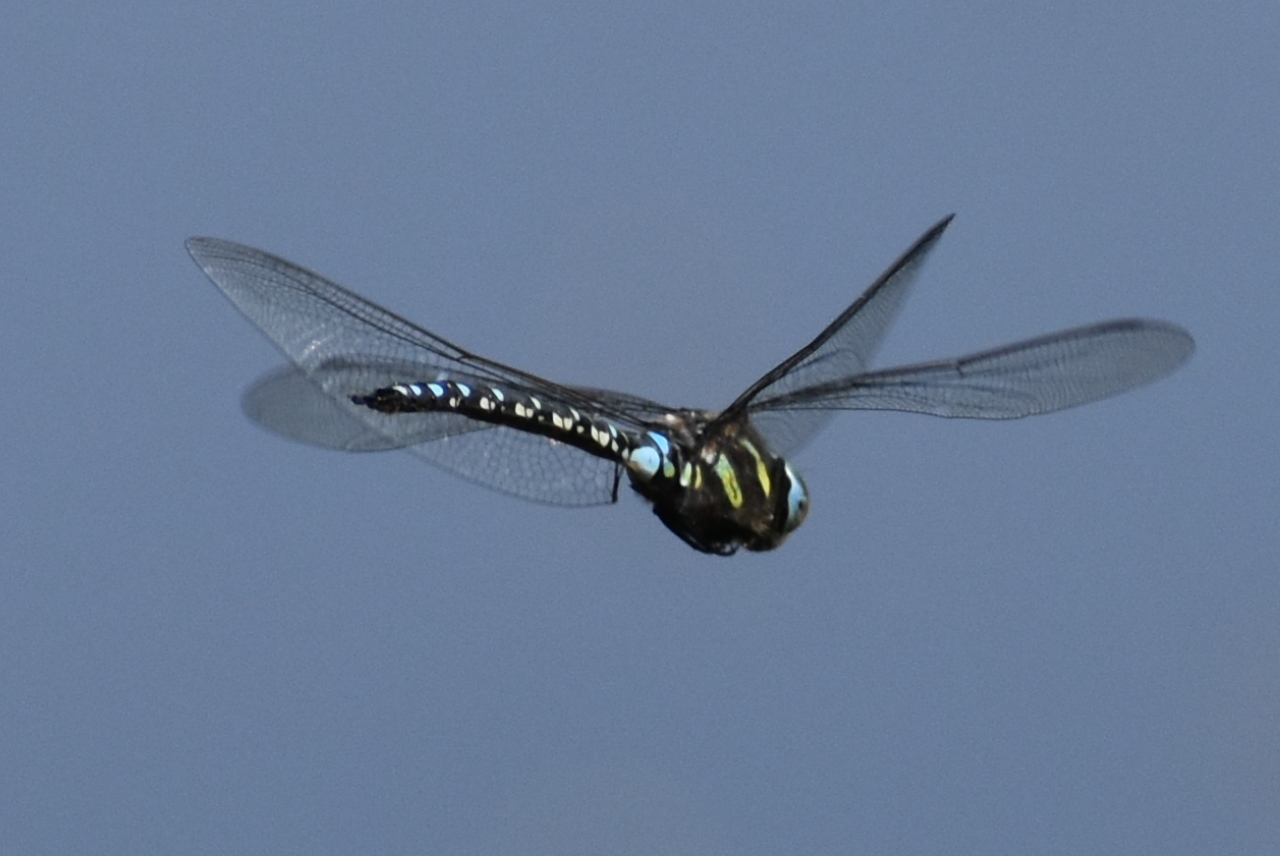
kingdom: Animalia
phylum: Arthropoda
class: Insecta
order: Odonata
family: Aeshnidae
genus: Aeshna
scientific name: Aeshna juncea
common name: Moorland hawker
